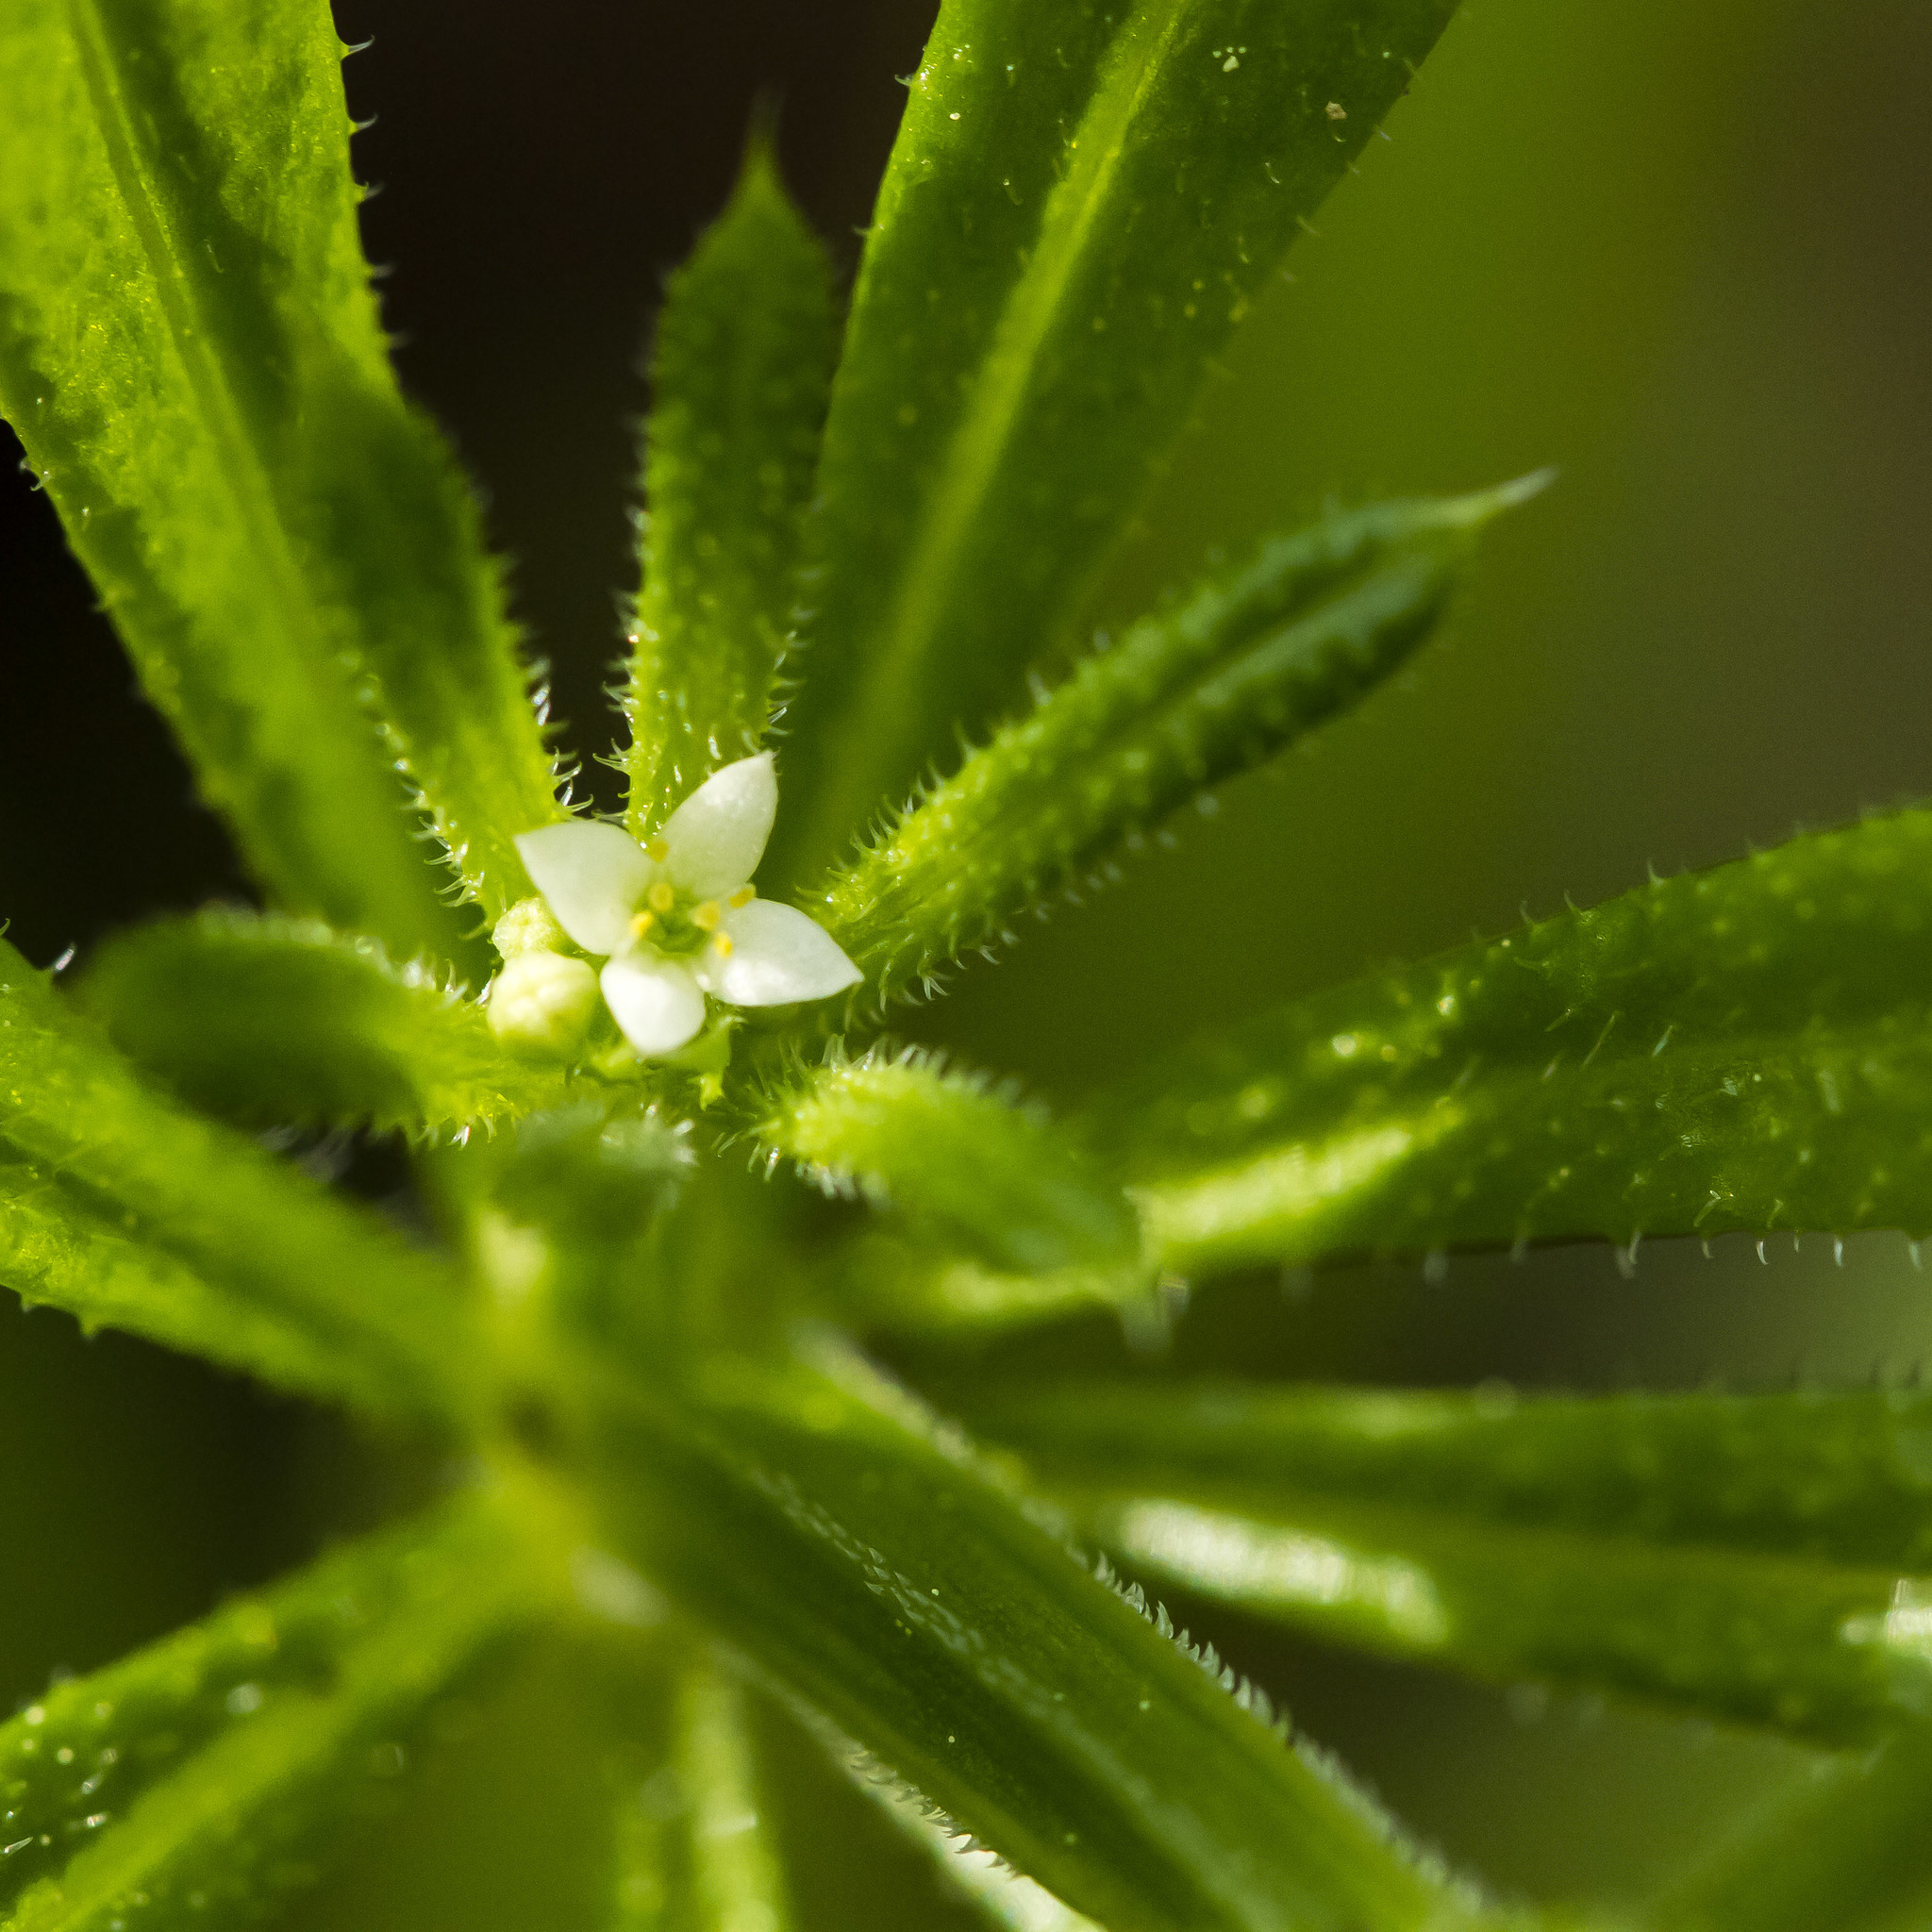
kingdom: Plantae
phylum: Tracheophyta
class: Magnoliopsida
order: Gentianales
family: Rubiaceae
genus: Galium
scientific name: Galium aparine
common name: Cleavers
